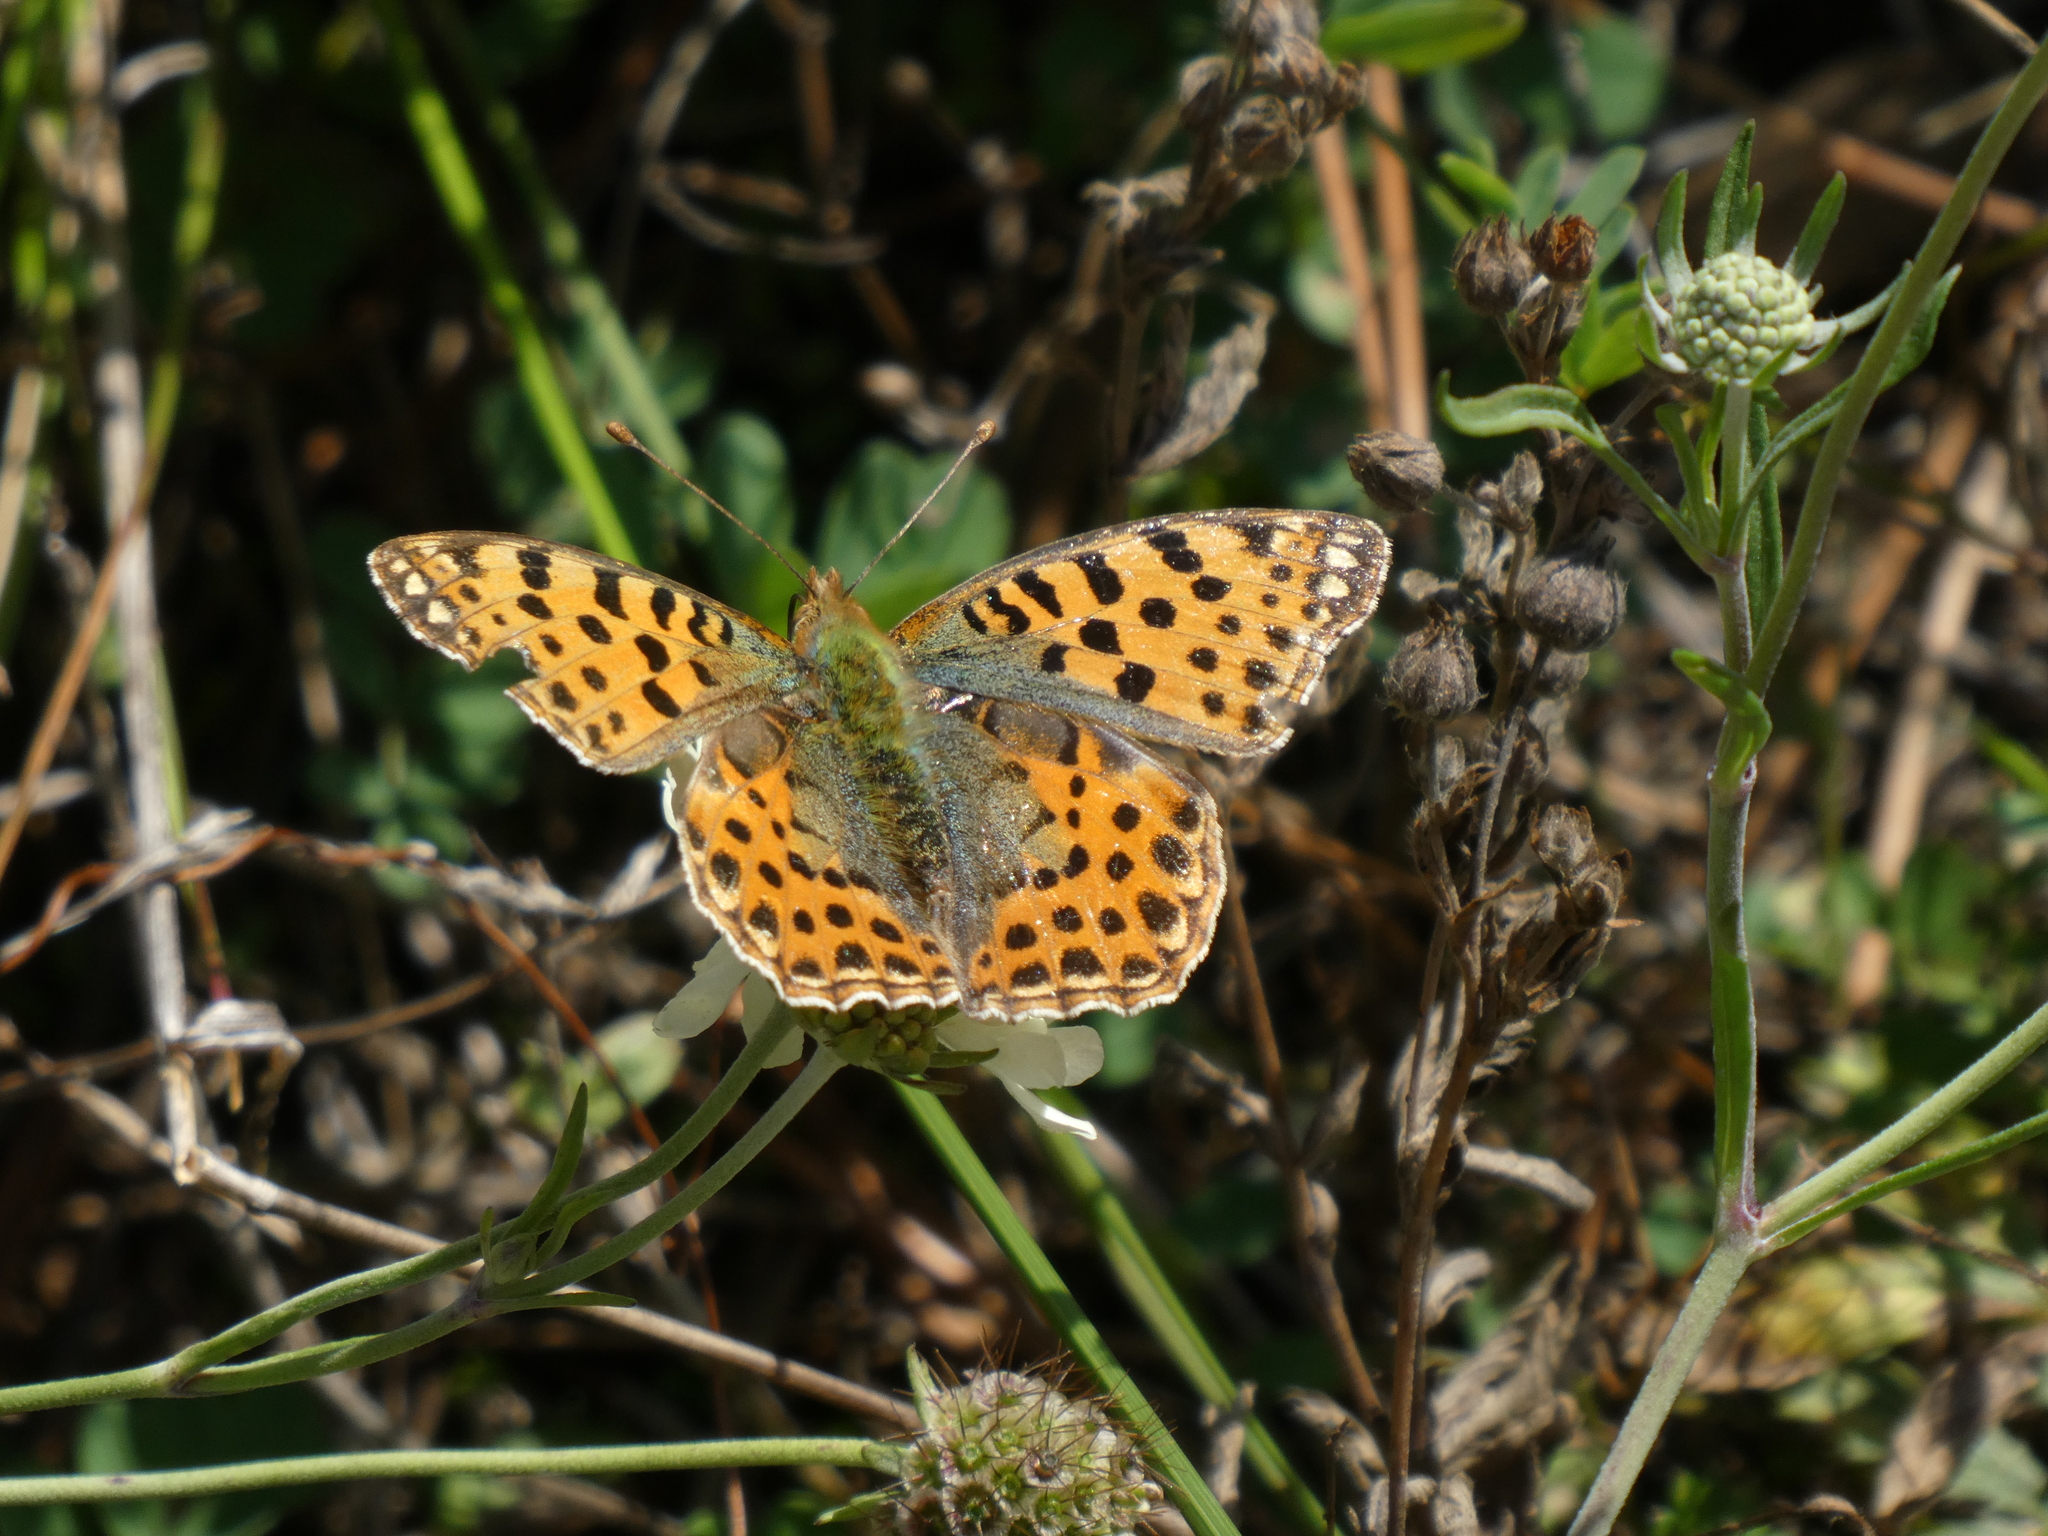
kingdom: Animalia
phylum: Arthropoda
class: Insecta
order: Lepidoptera
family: Nymphalidae
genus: Issoria
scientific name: Issoria lathonia
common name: Queen of spain fritillary
